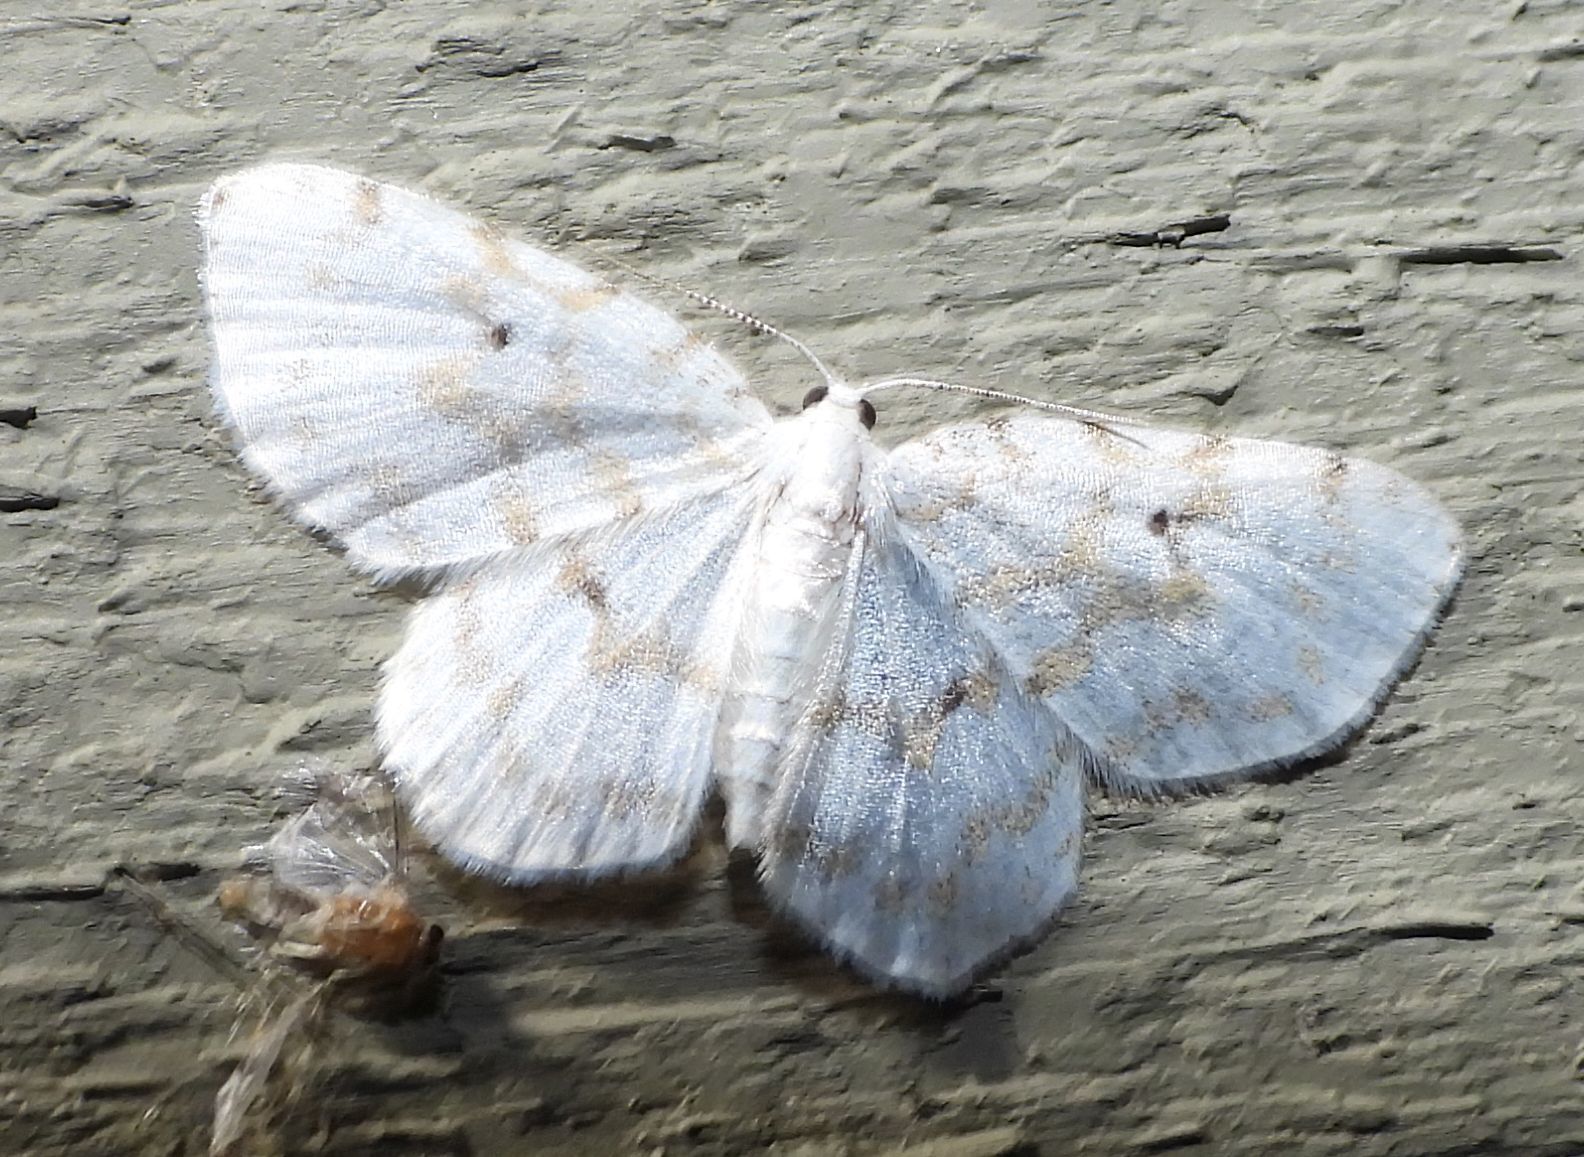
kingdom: Animalia
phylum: Arthropoda
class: Insecta
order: Lepidoptera
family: Geometridae
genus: Hydrelia
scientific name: Hydrelia albifera
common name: Fragile white carpet
